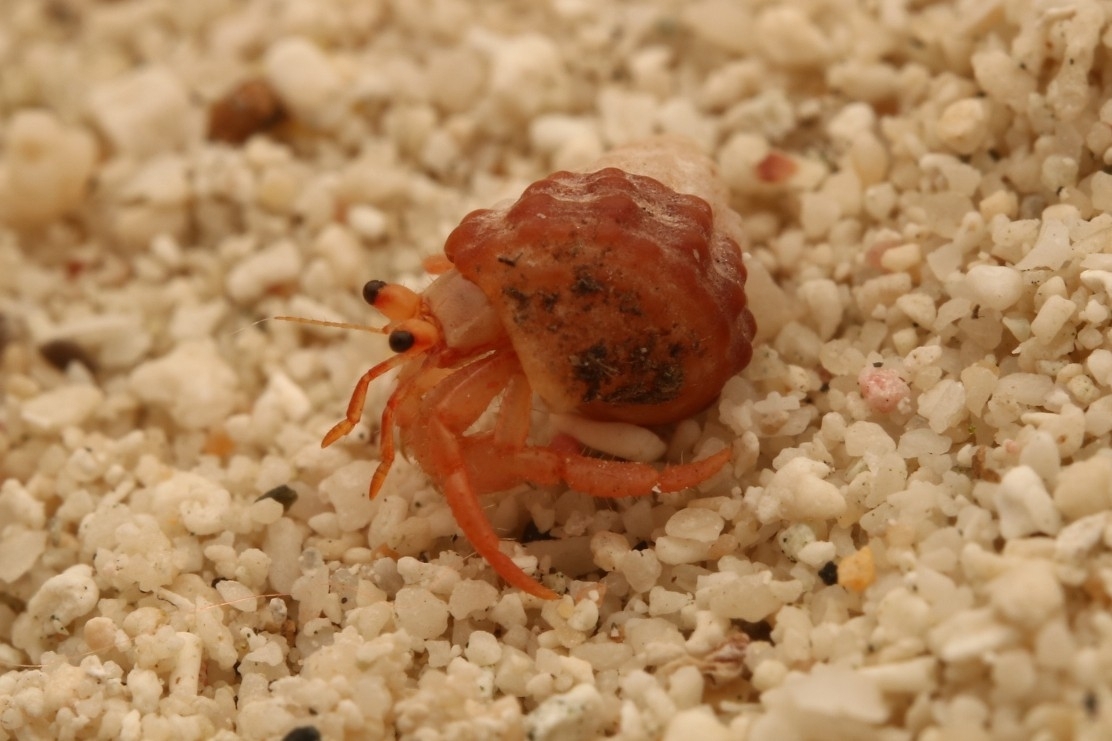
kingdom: Animalia
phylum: Arthropoda
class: Malacostraca
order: Decapoda
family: Coenobitidae
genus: Coenobita
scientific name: Coenobita clypeatus
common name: Caribbean hermit crab
